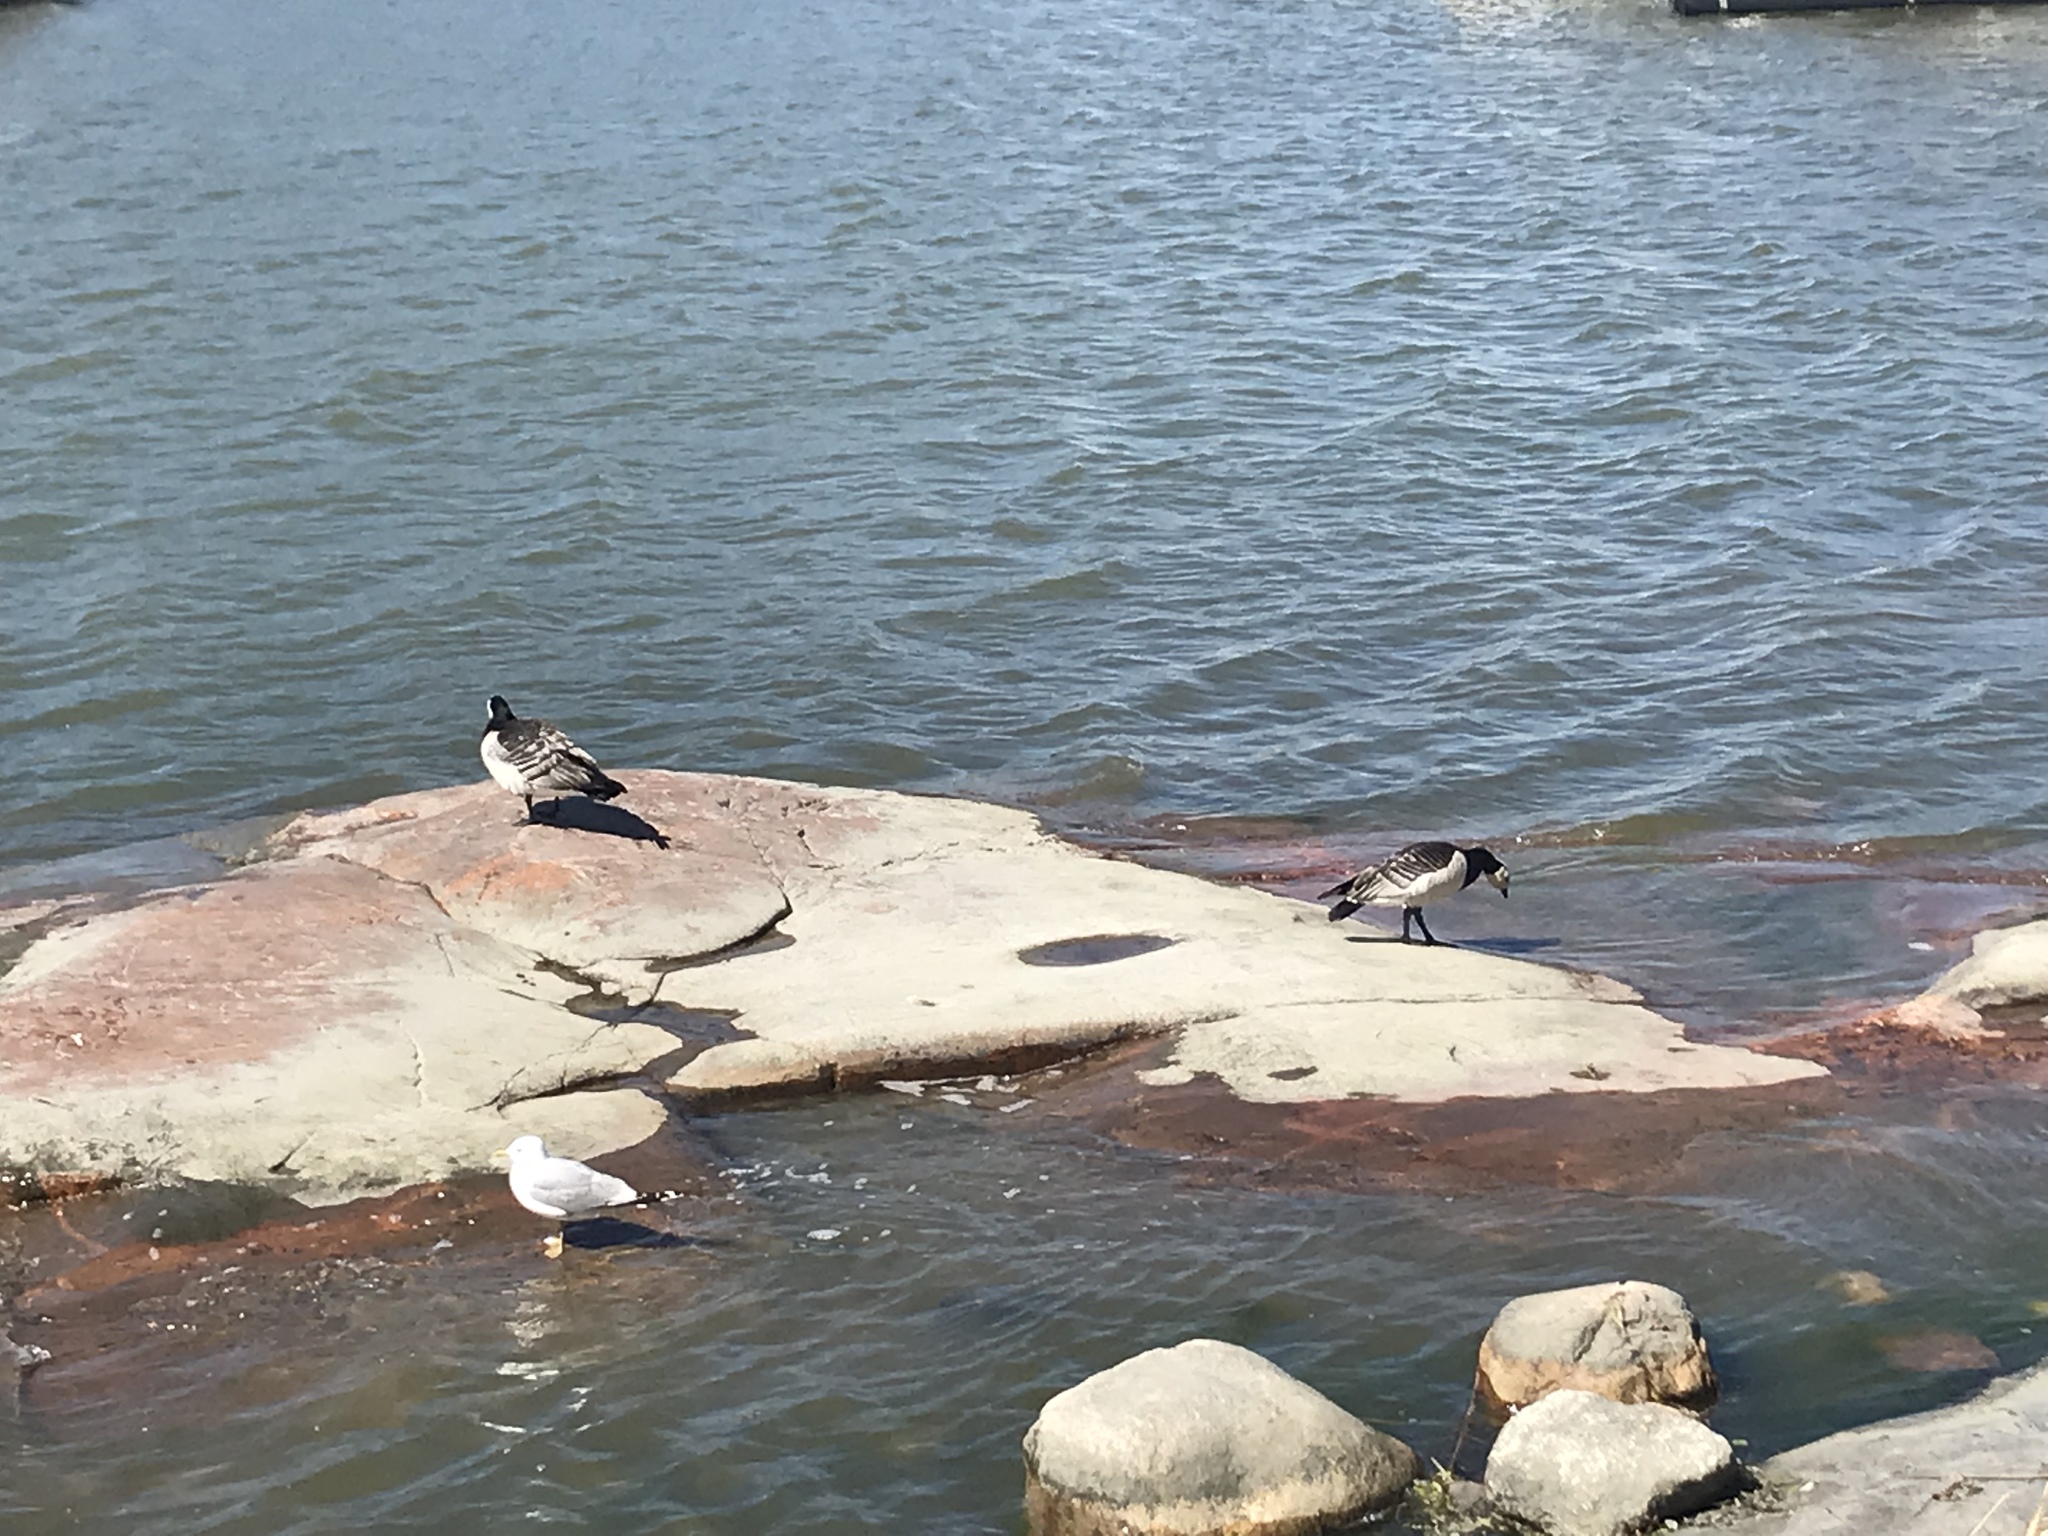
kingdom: Animalia
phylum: Chordata
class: Aves
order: Anseriformes
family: Anatidae
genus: Branta
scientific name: Branta leucopsis
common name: Barnacle goose
